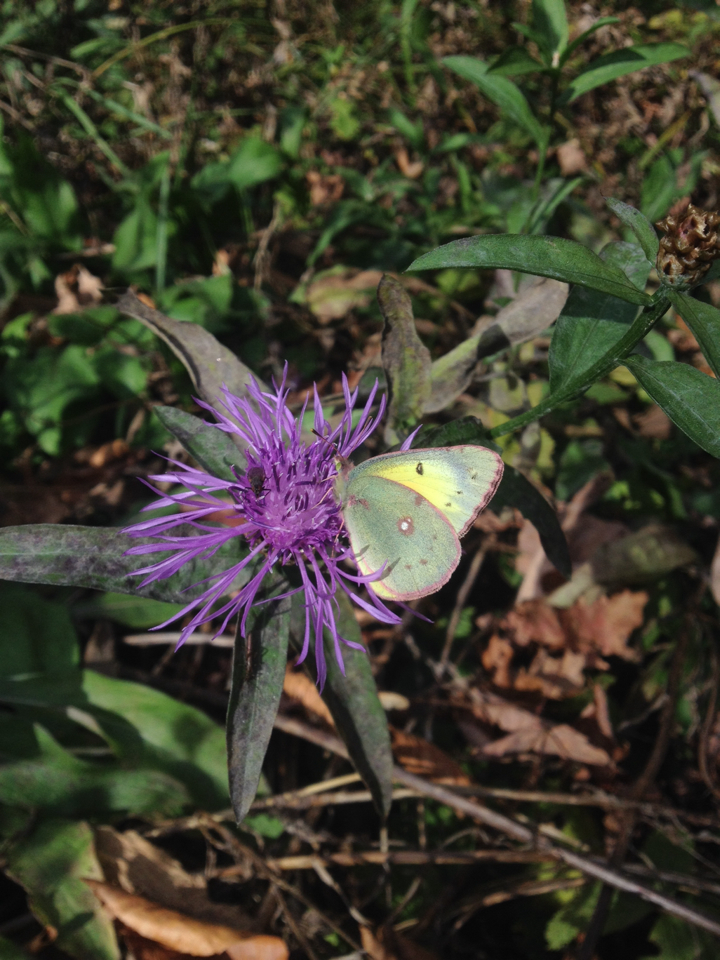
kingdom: Animalia
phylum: Arthropoda
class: Insecta
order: Lepidoptera
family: Pieridae
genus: Colias
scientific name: Colias philodice
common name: Clouded sulphur
